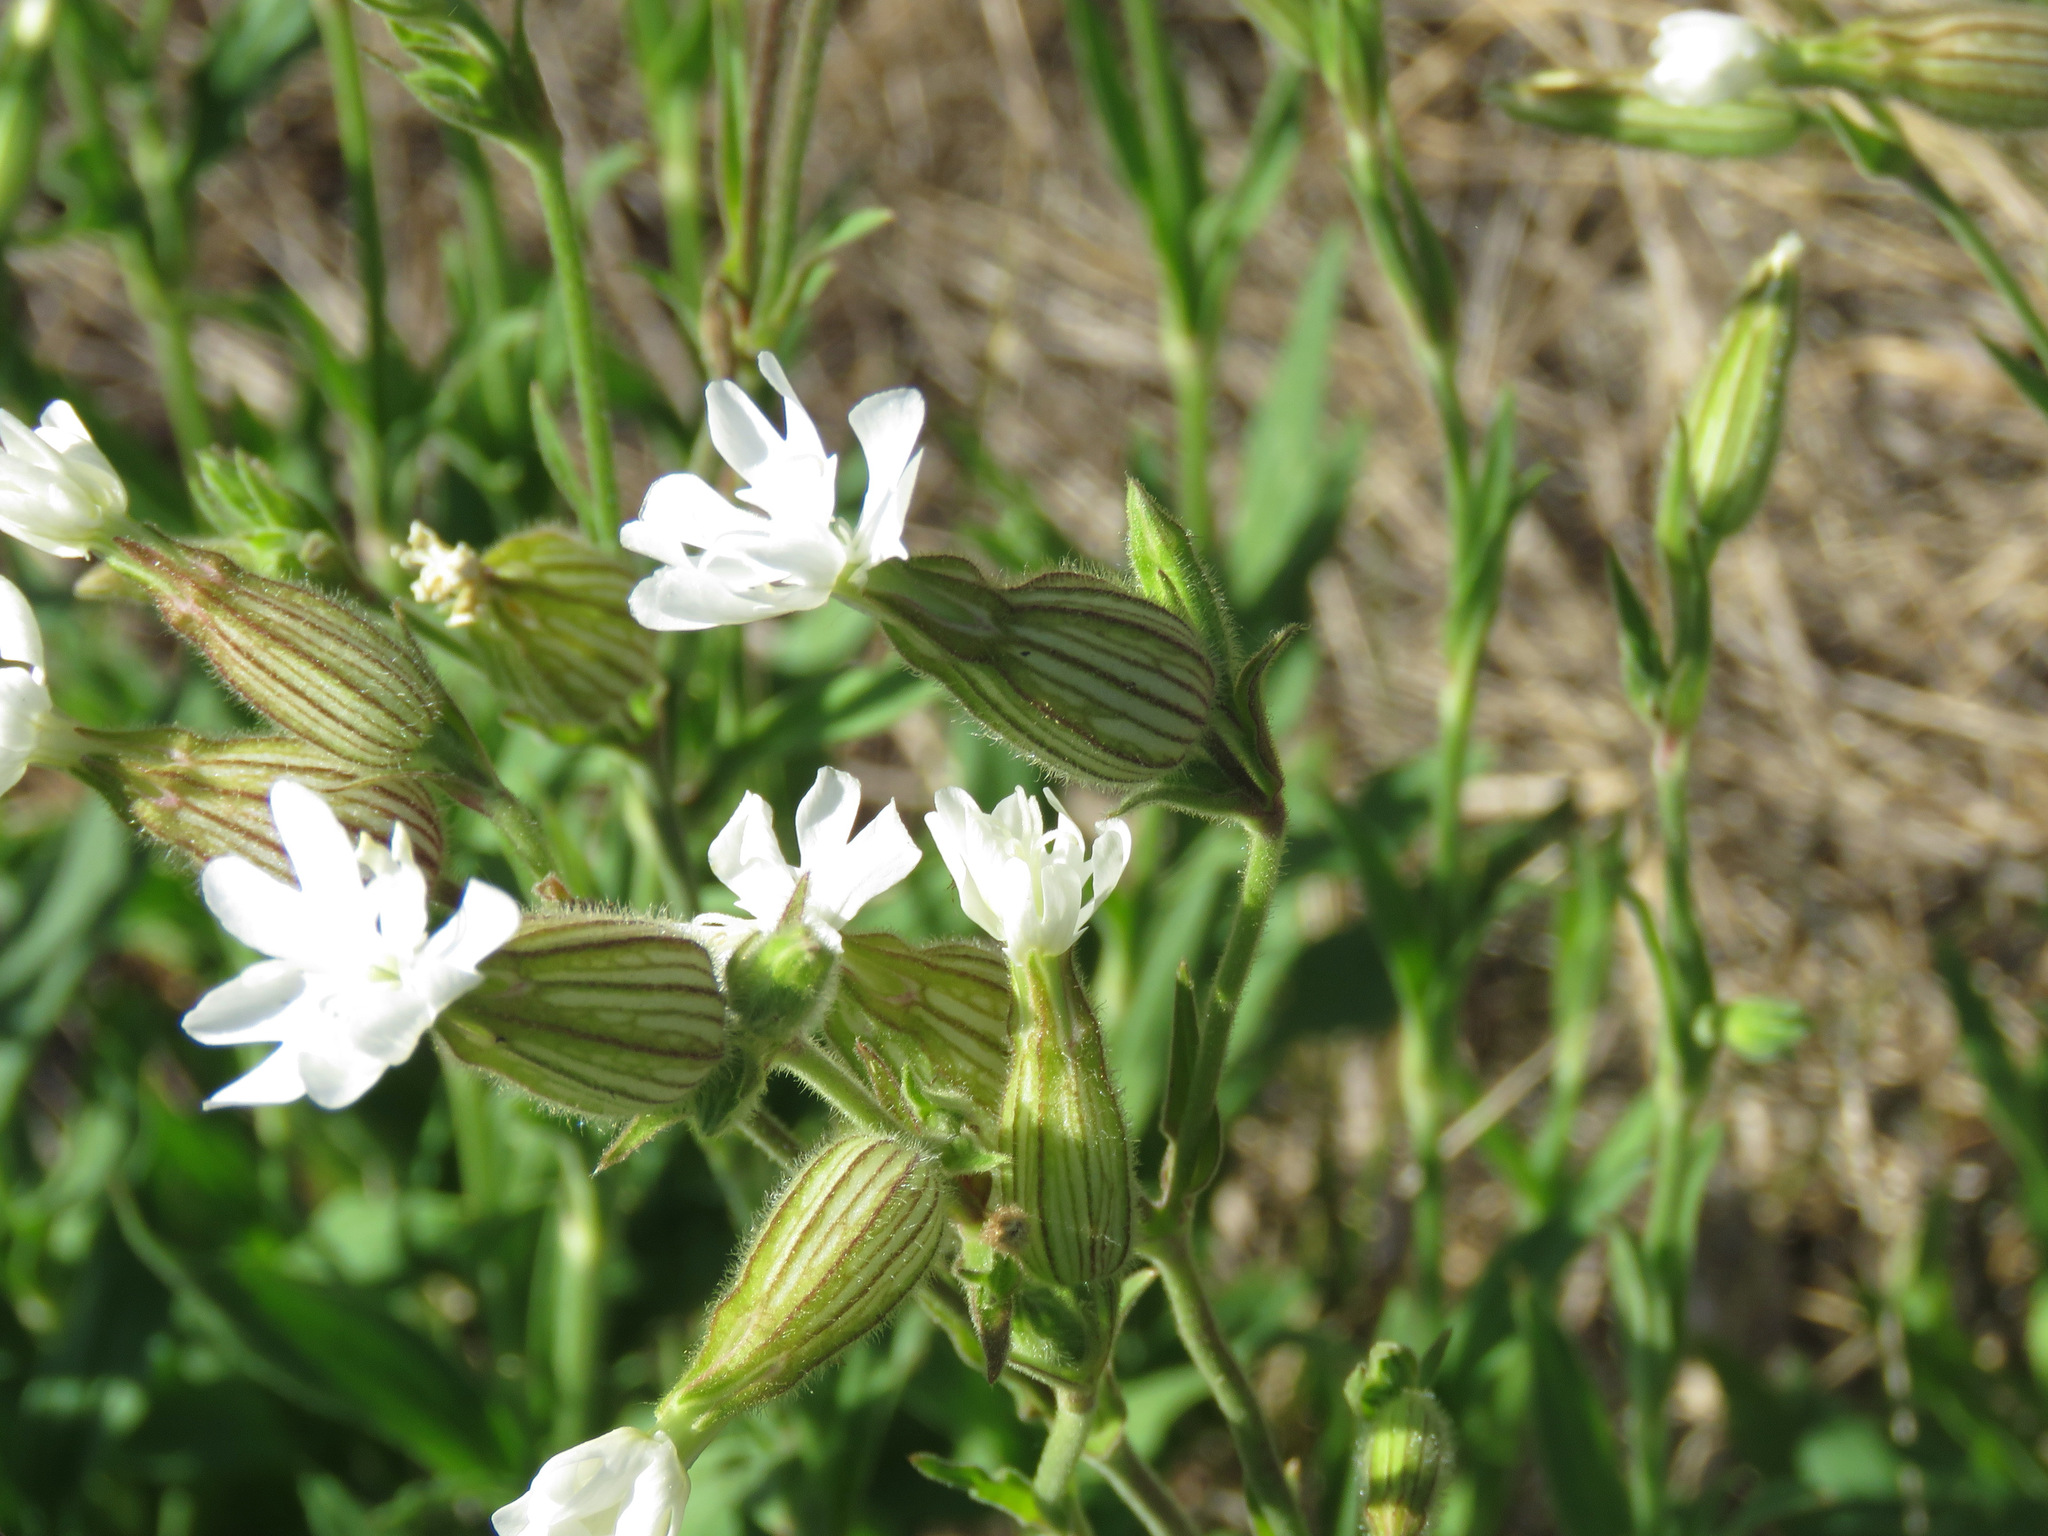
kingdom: Plantae
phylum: Tracheophyta
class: Magnoliopsida
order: Caryophyllales
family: Caryophyllaceae
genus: Silene
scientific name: Silene latifolia
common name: White campion
